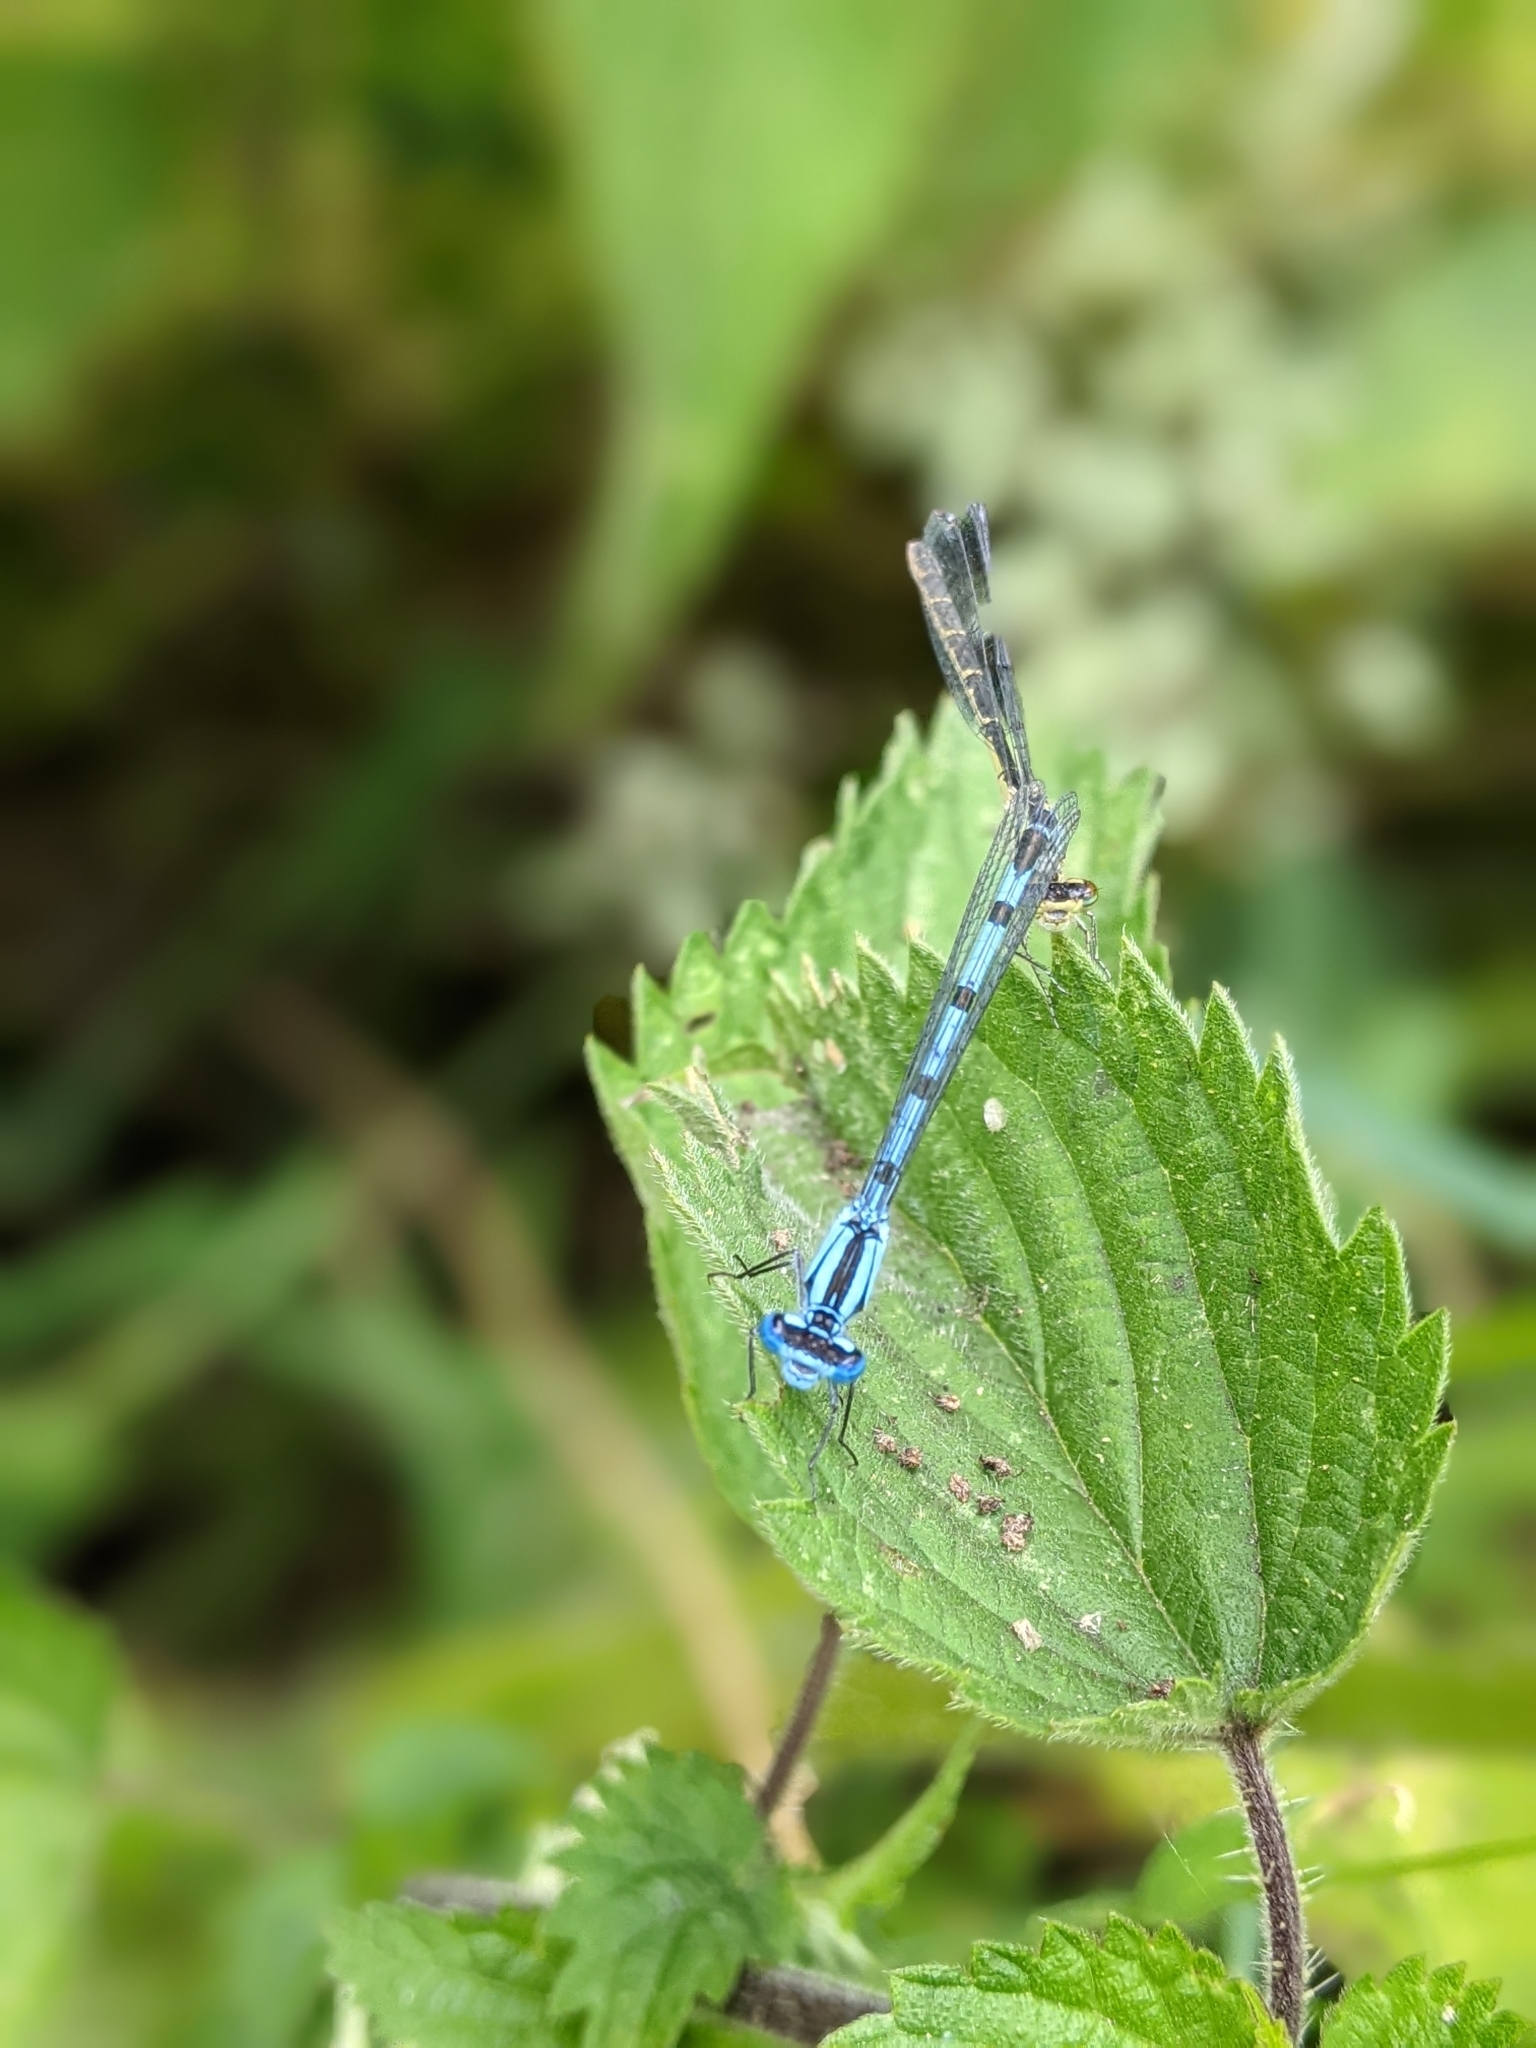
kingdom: Animalia
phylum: Arthropoda
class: Insecta
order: Odonata
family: Coenagrionidae
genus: Enallagma
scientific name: Enallagma cyathigerum
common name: Common blue damselfly
